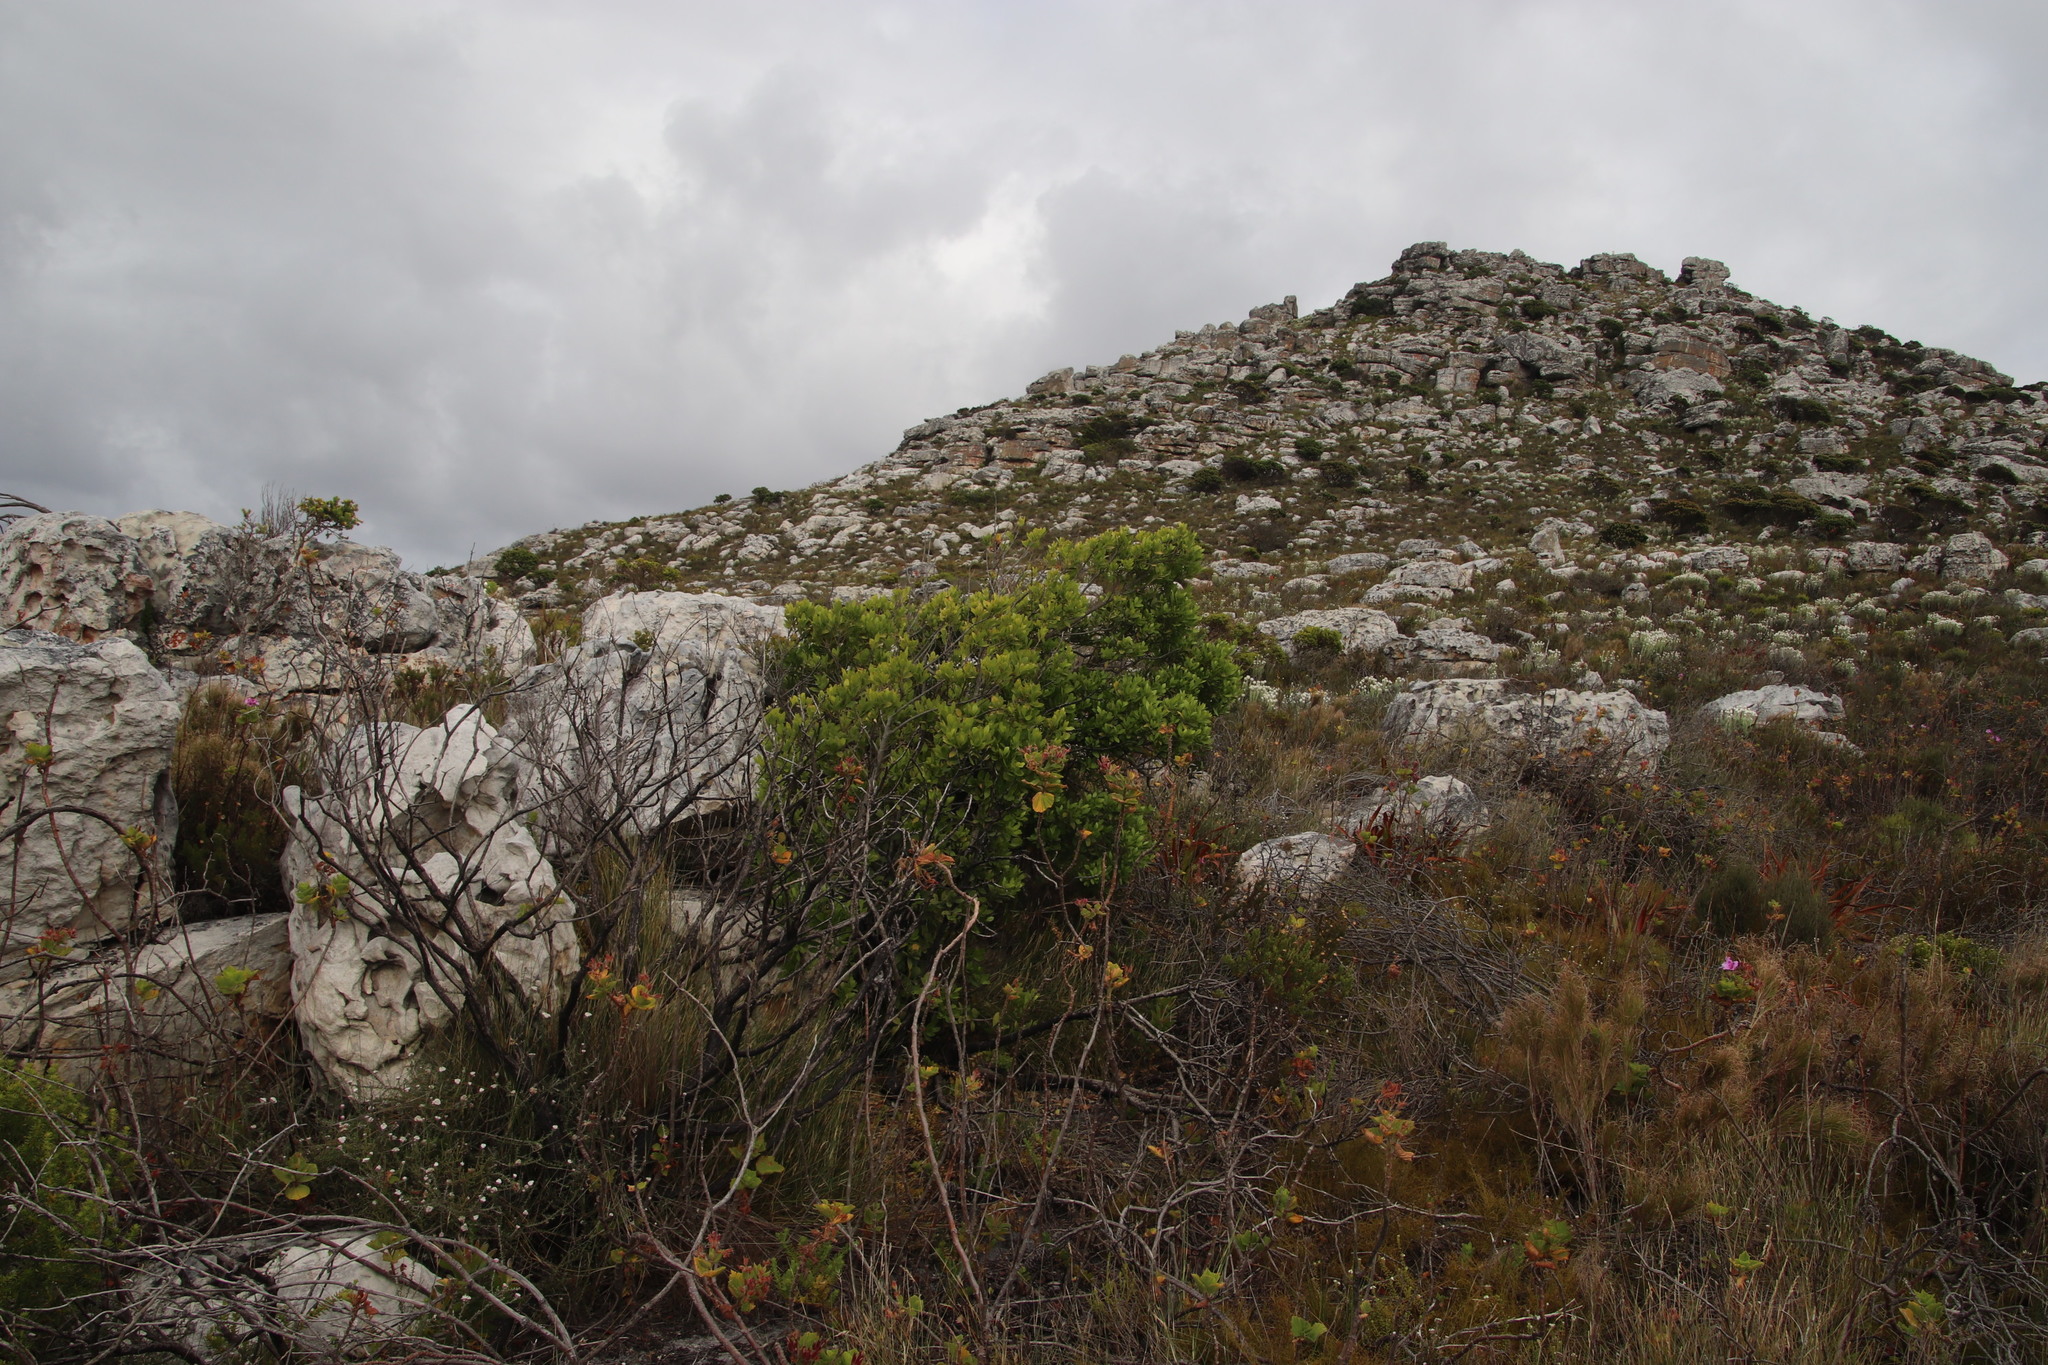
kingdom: Plantae
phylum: Tracheophyta
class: Magnoliopsida
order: Celastrales
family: Celastraceae
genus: Gymnosporia
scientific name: Gymnosporia laurina
